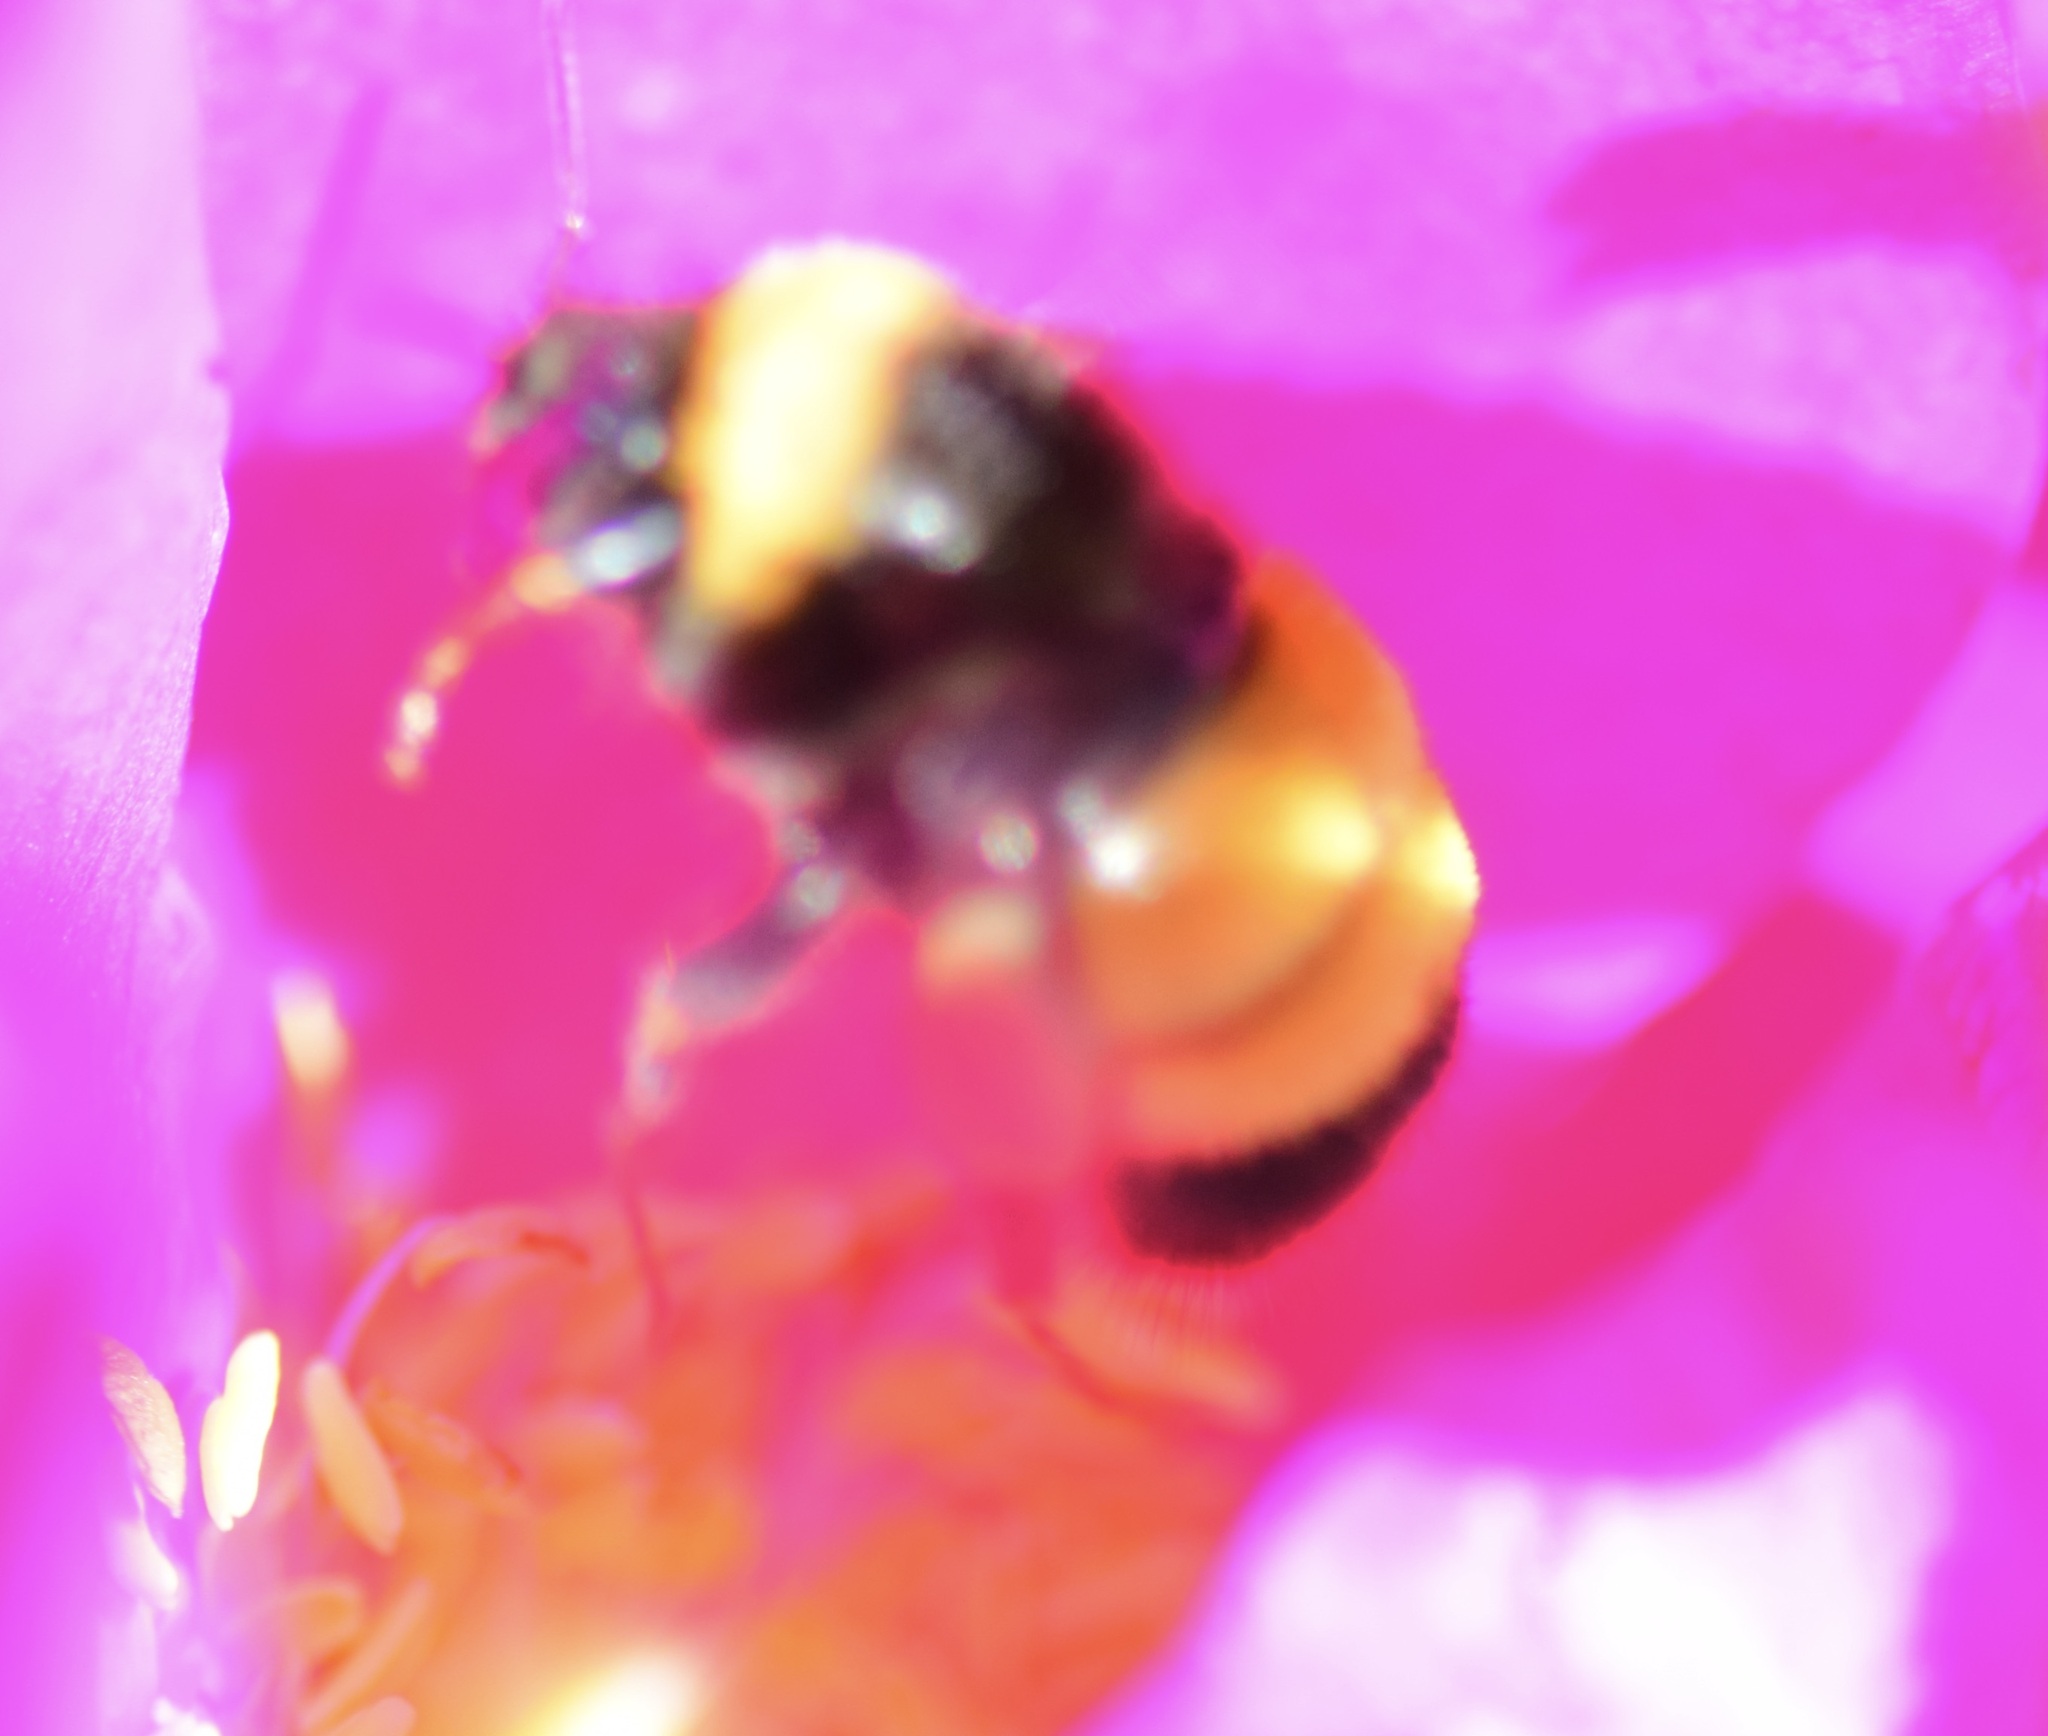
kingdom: Animalia
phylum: Arthropoda
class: Insecta
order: Hymenoptera
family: Apidae
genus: Bombus
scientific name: Bombus terricola
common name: Yellow-banded bumble bee
